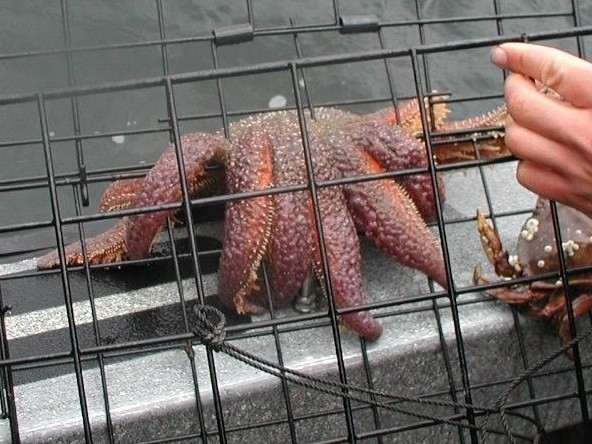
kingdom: Animalia
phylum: Echinodermata
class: Asteroidea
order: Forcipulatida
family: Asteriidae
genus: Pycnopodia
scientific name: Pycnopodia helianthoides
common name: Rag mop
